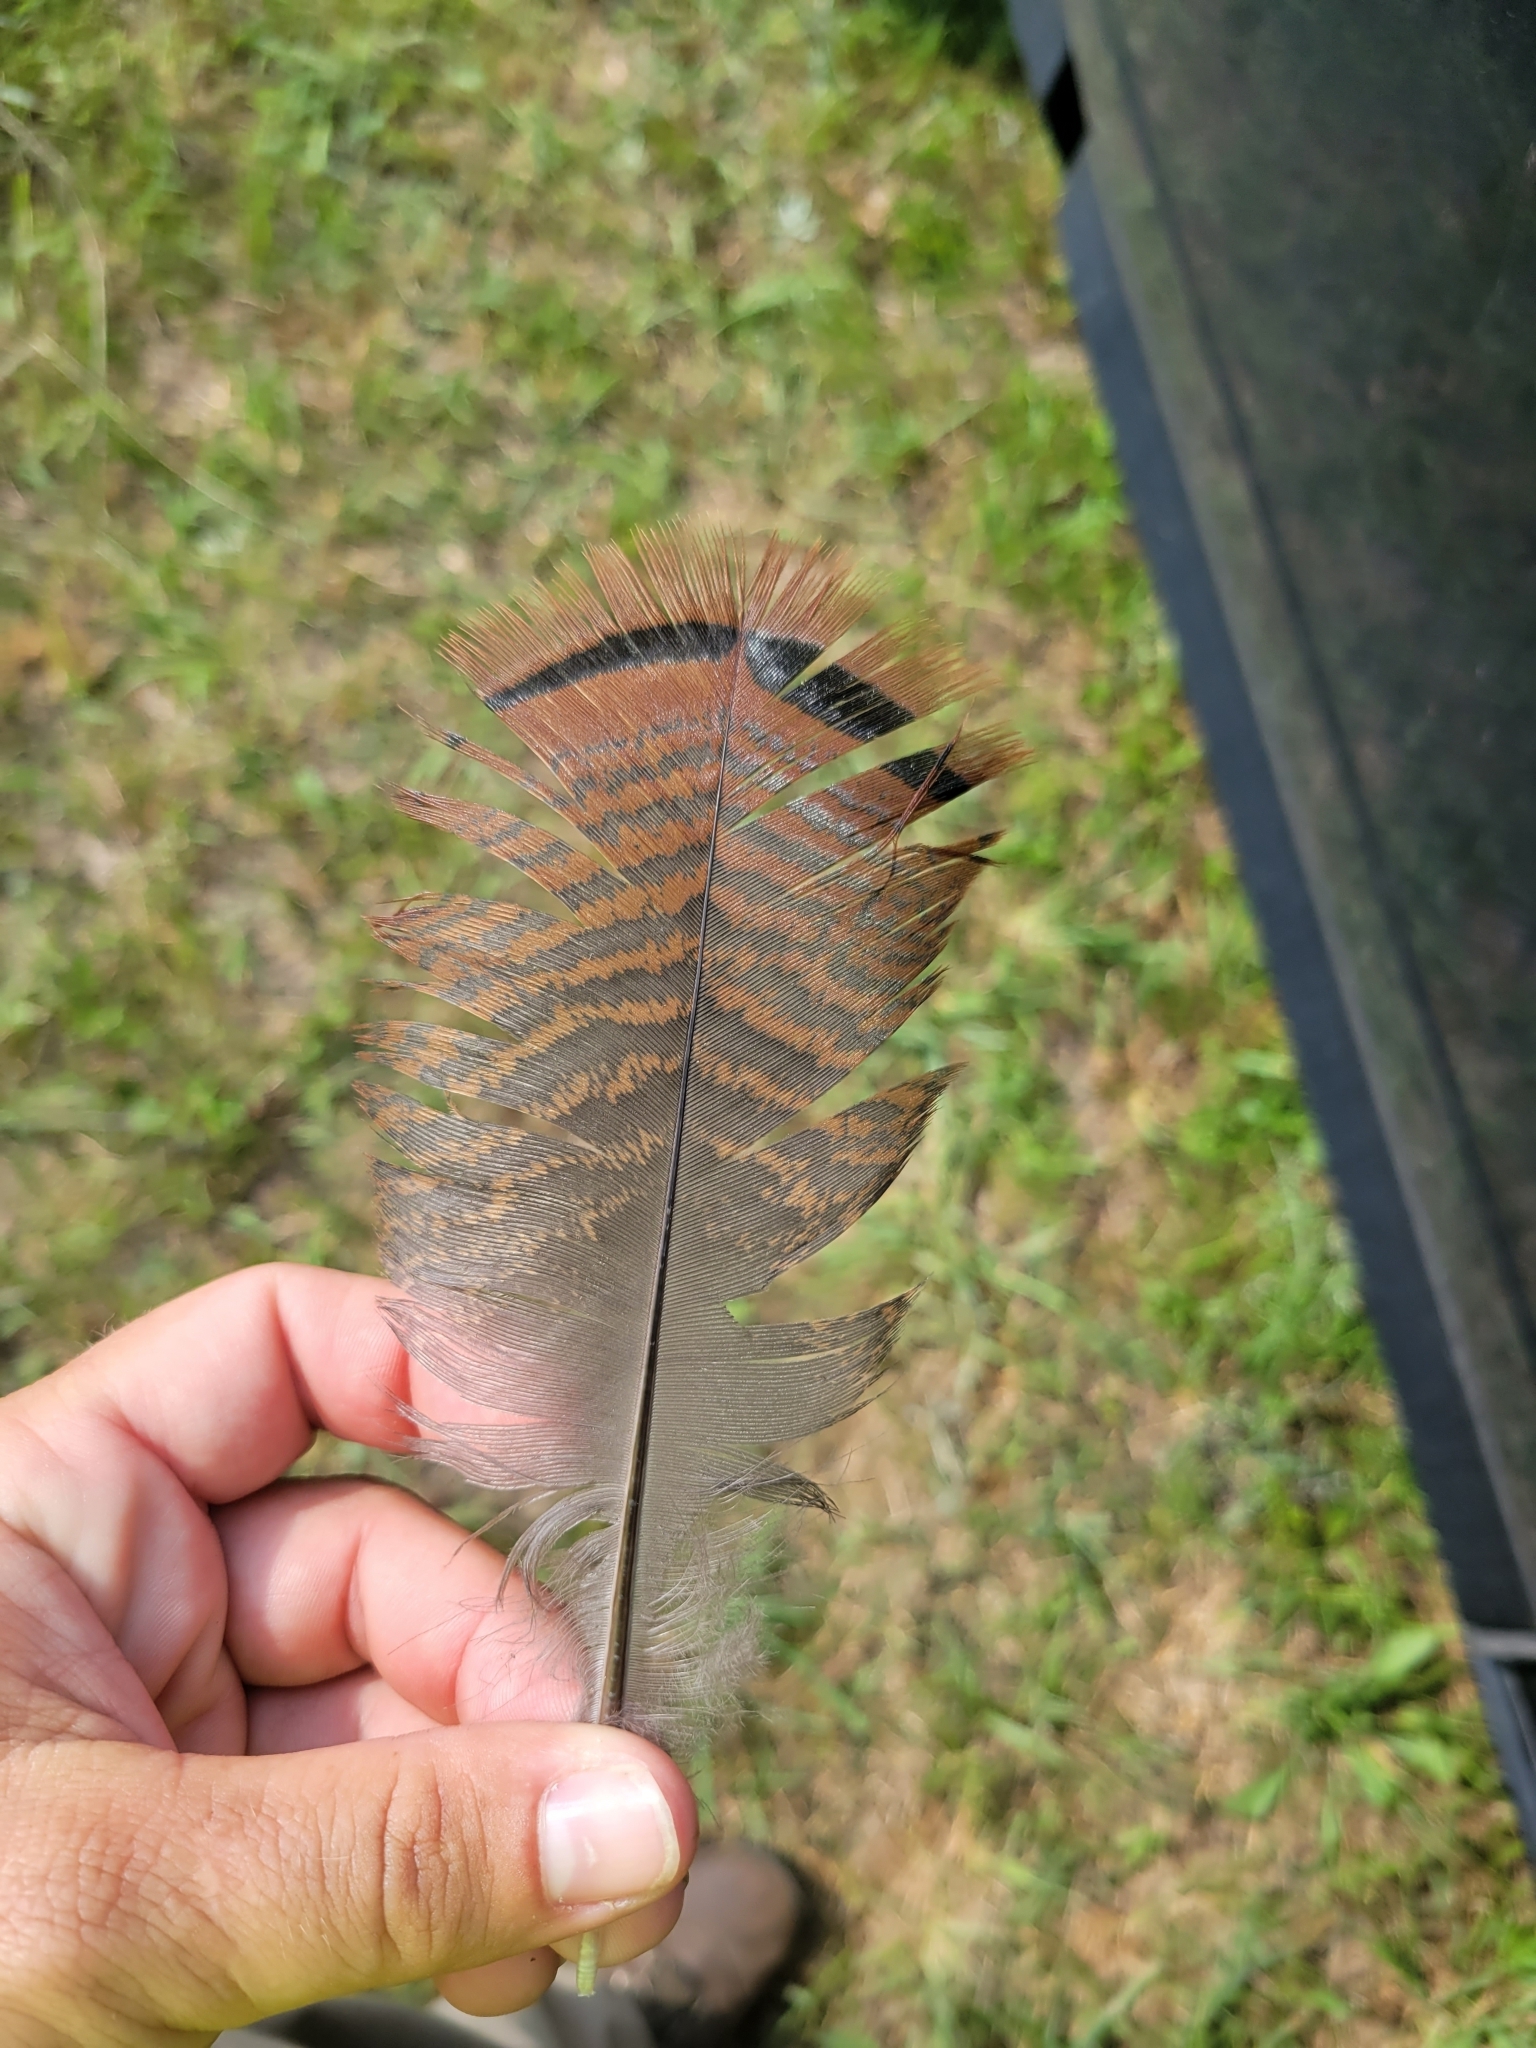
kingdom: Animalia
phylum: Chordata
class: Aves
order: Galliformes
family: Phasianidae
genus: Meleagris
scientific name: Meleagris gallopavo
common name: Wild turkey
